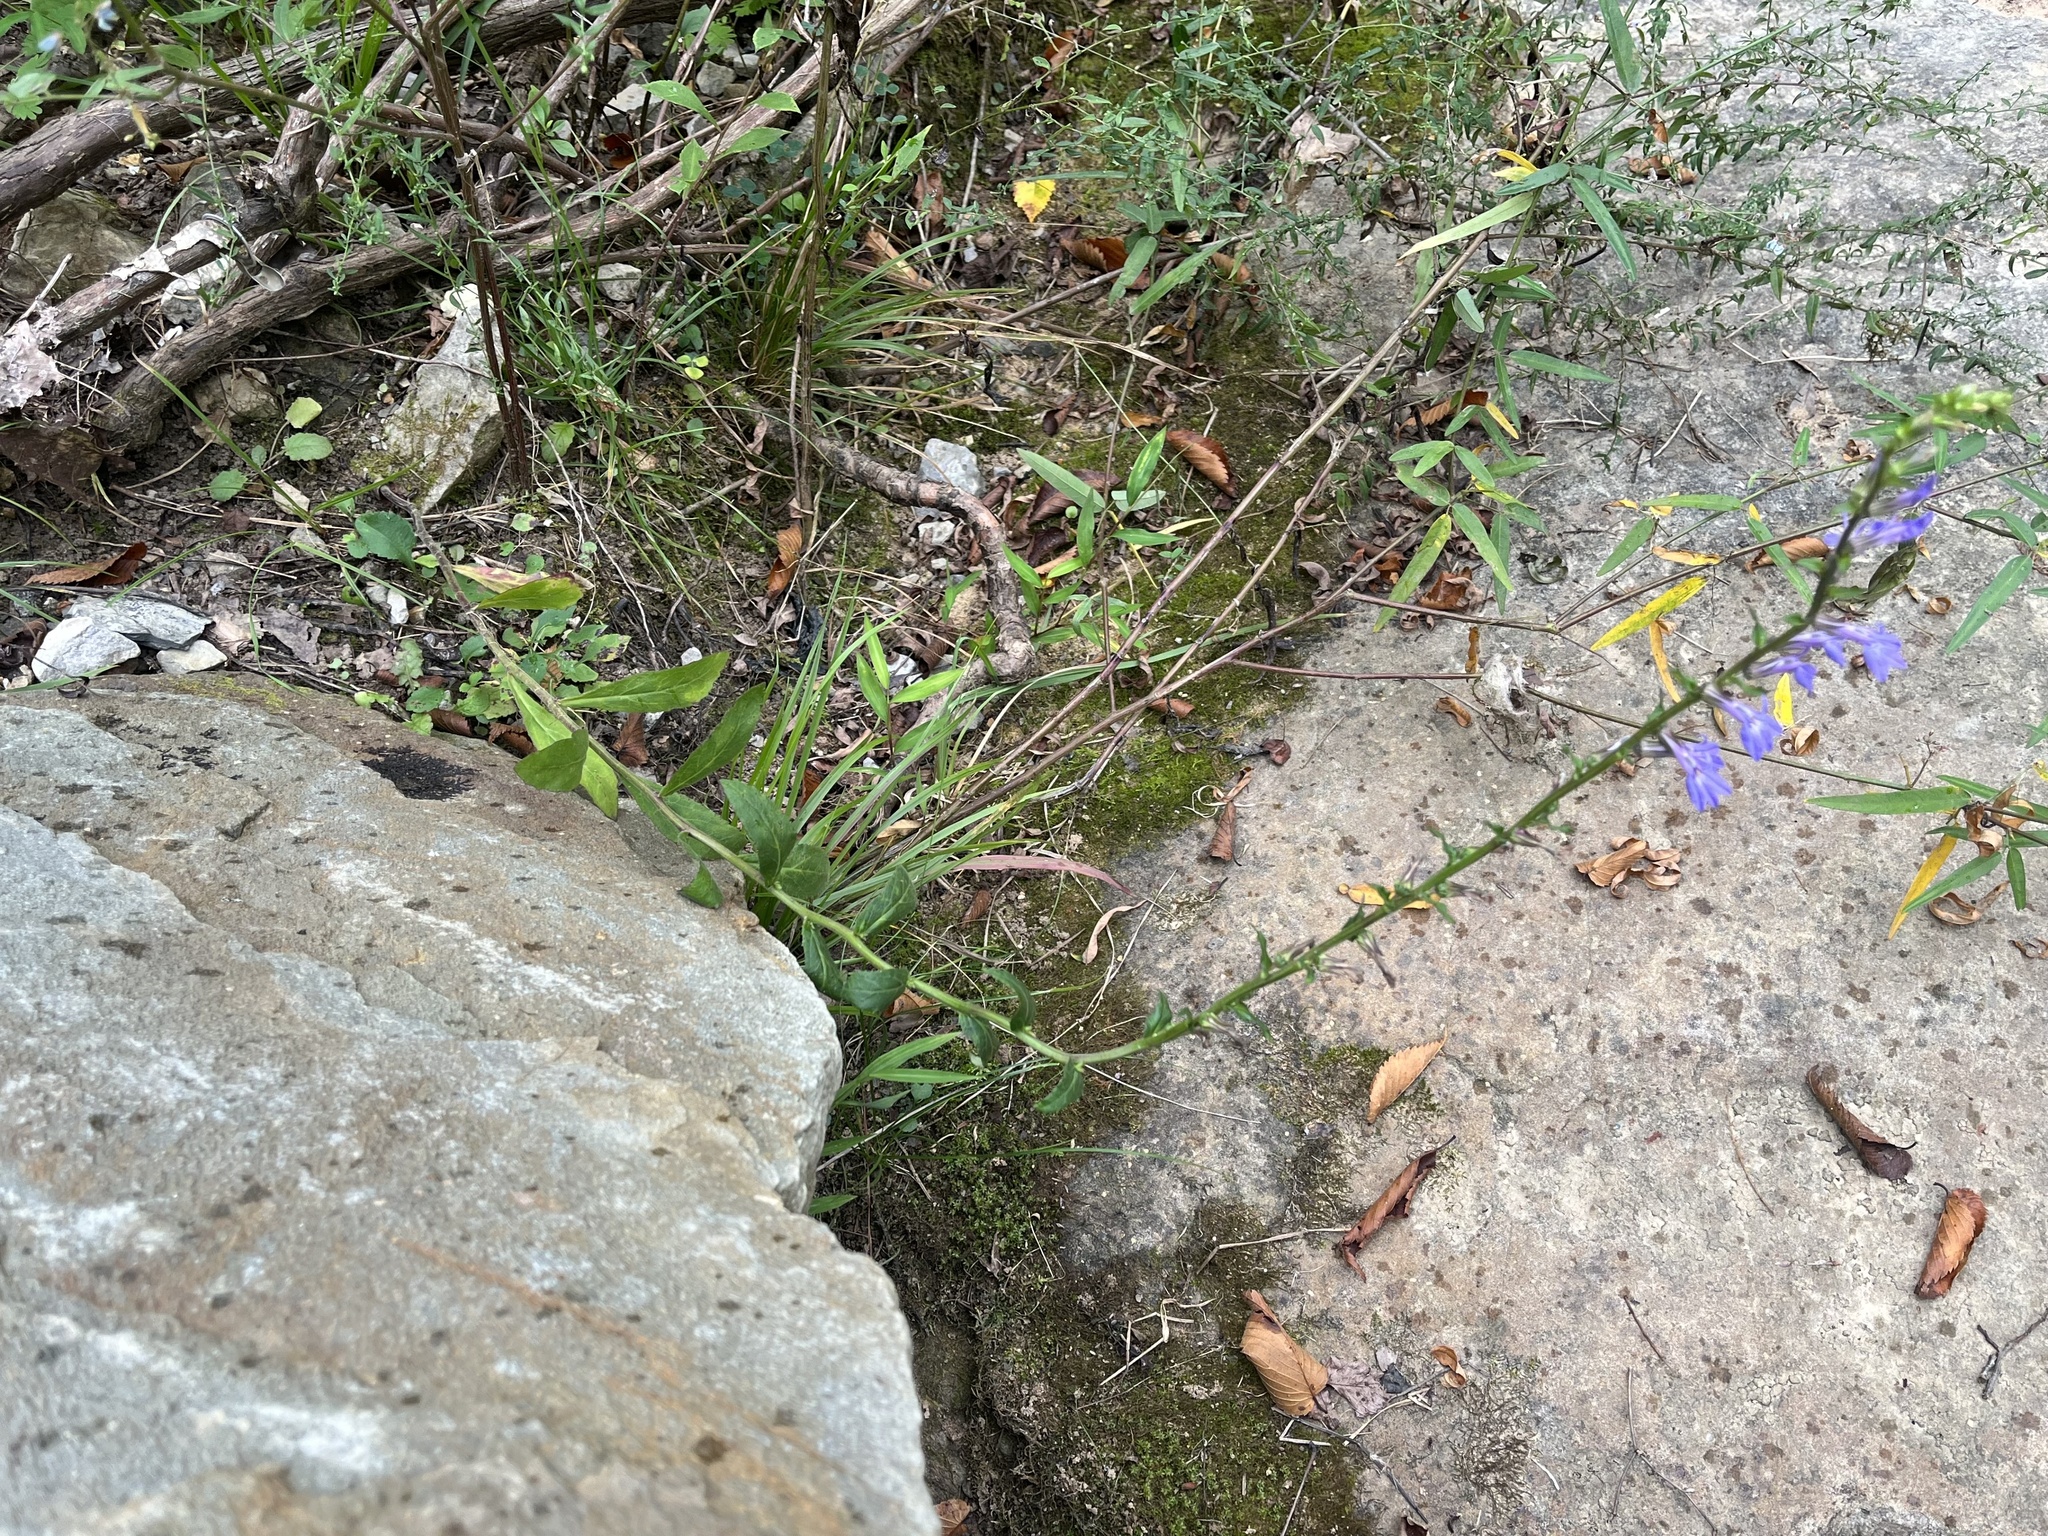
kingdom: Plantae
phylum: Tracheophyta
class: Magnoliopsida
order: Asterales
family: Campanulaceae
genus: Lobelia
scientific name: Lobelia puberula
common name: Purple dewdrop
